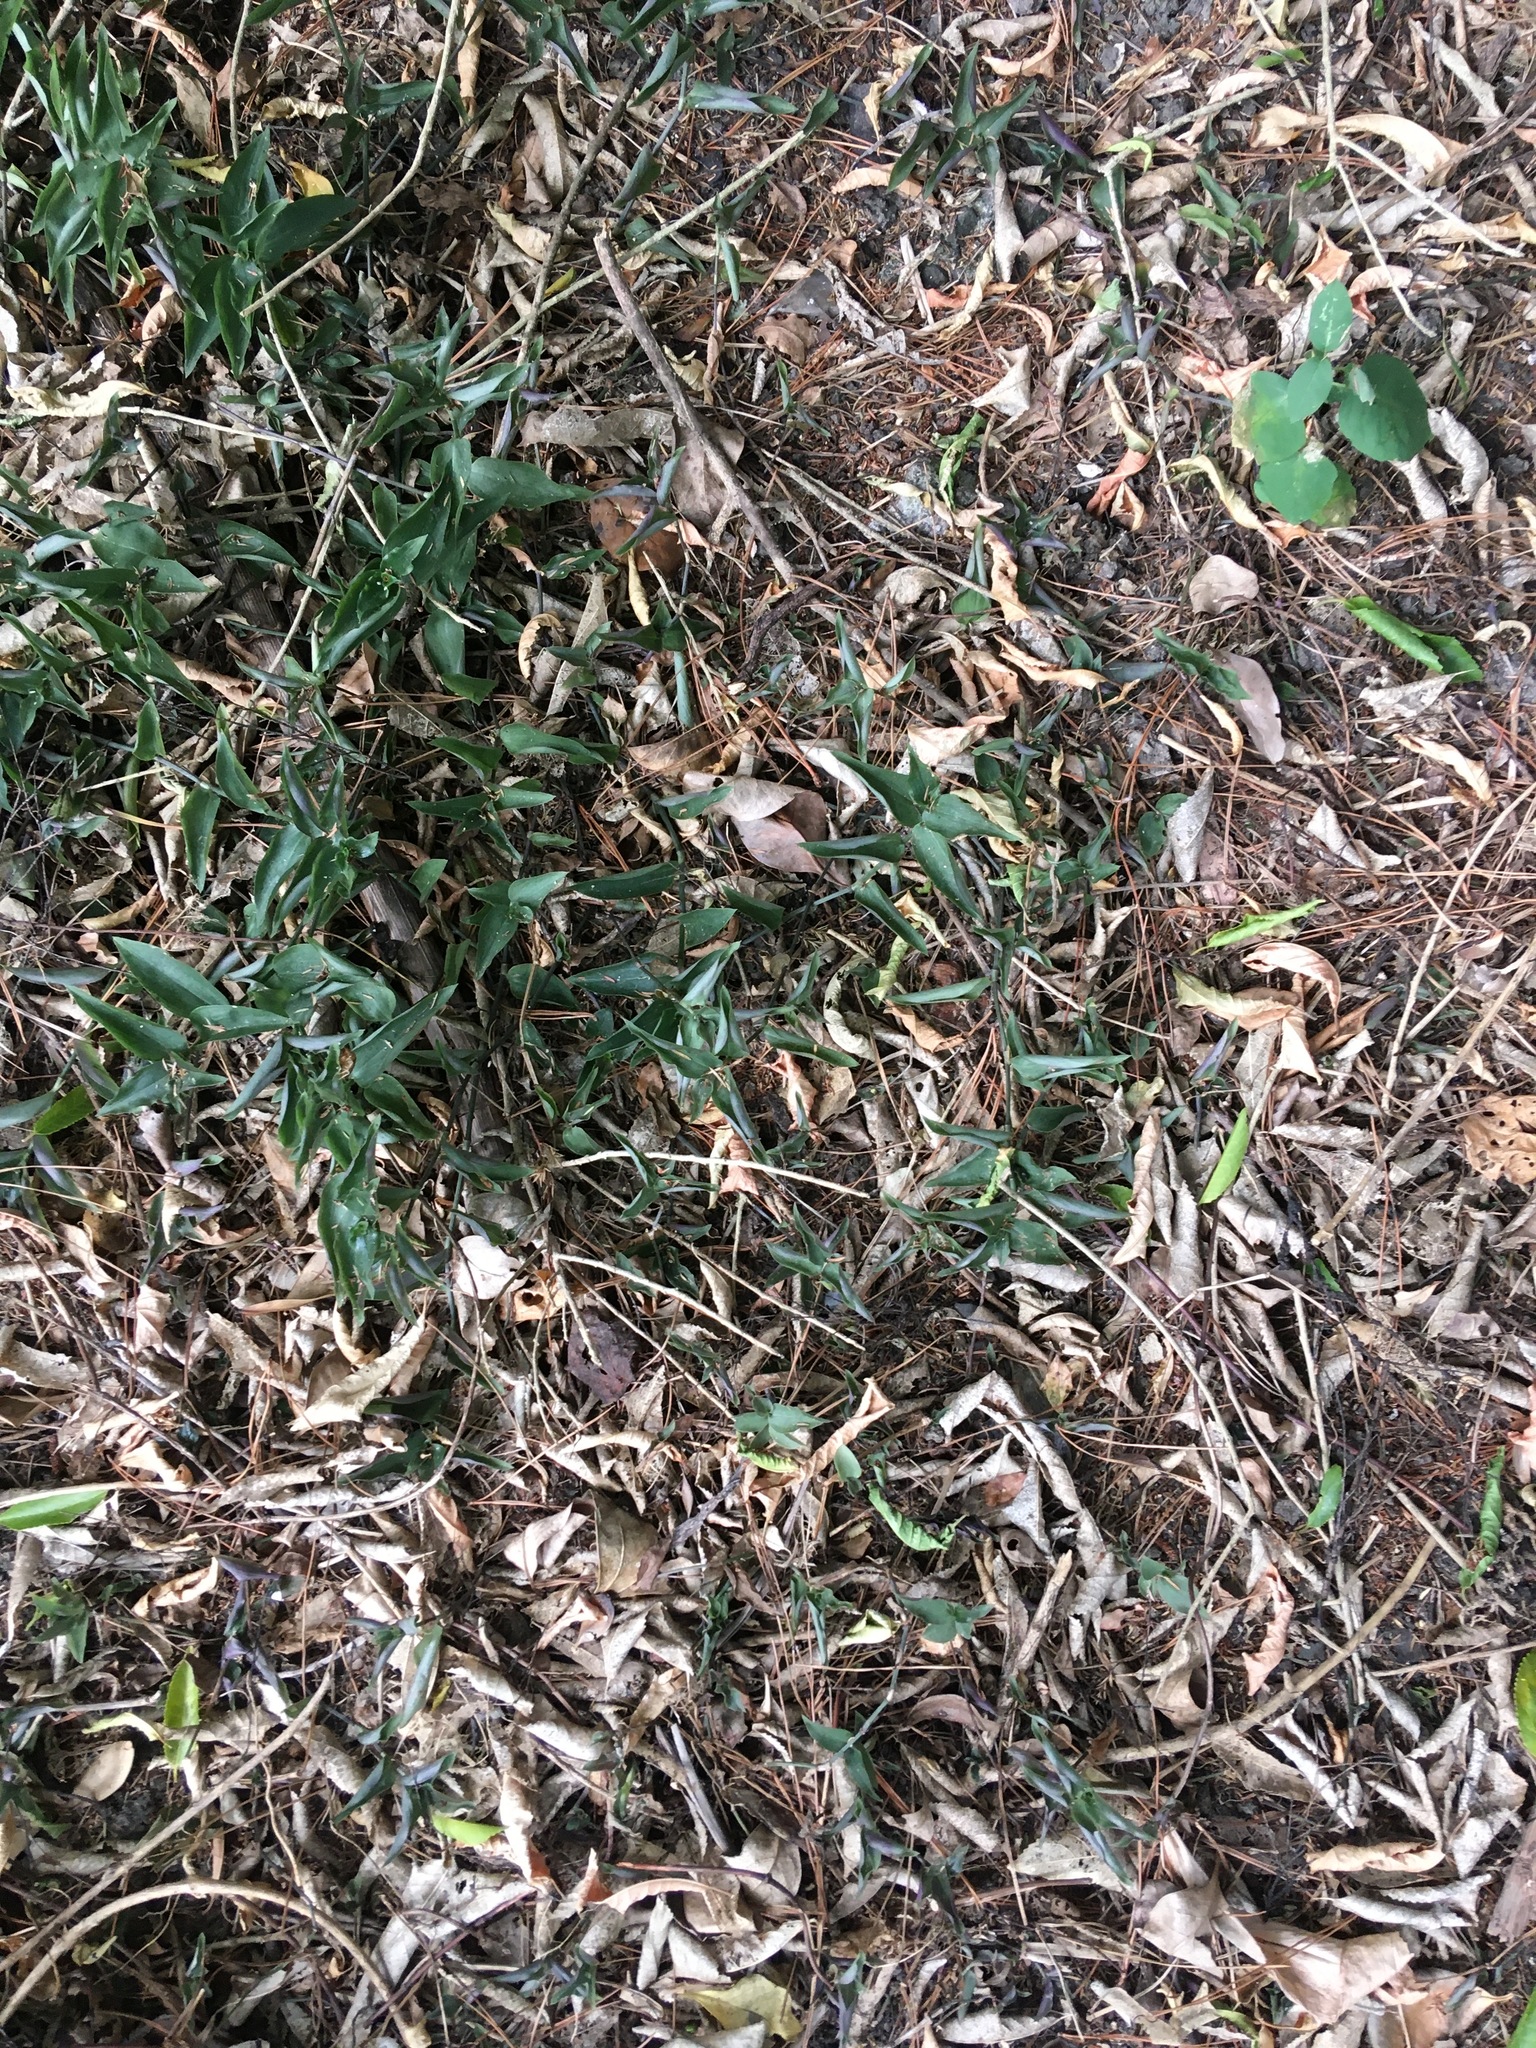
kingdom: Plantae
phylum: Tracheophyta
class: Liliopsida
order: Commelinales
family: Commelinaceae
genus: Tradescantia
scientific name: Tradescantia fluminensis
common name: Wandering-jew
